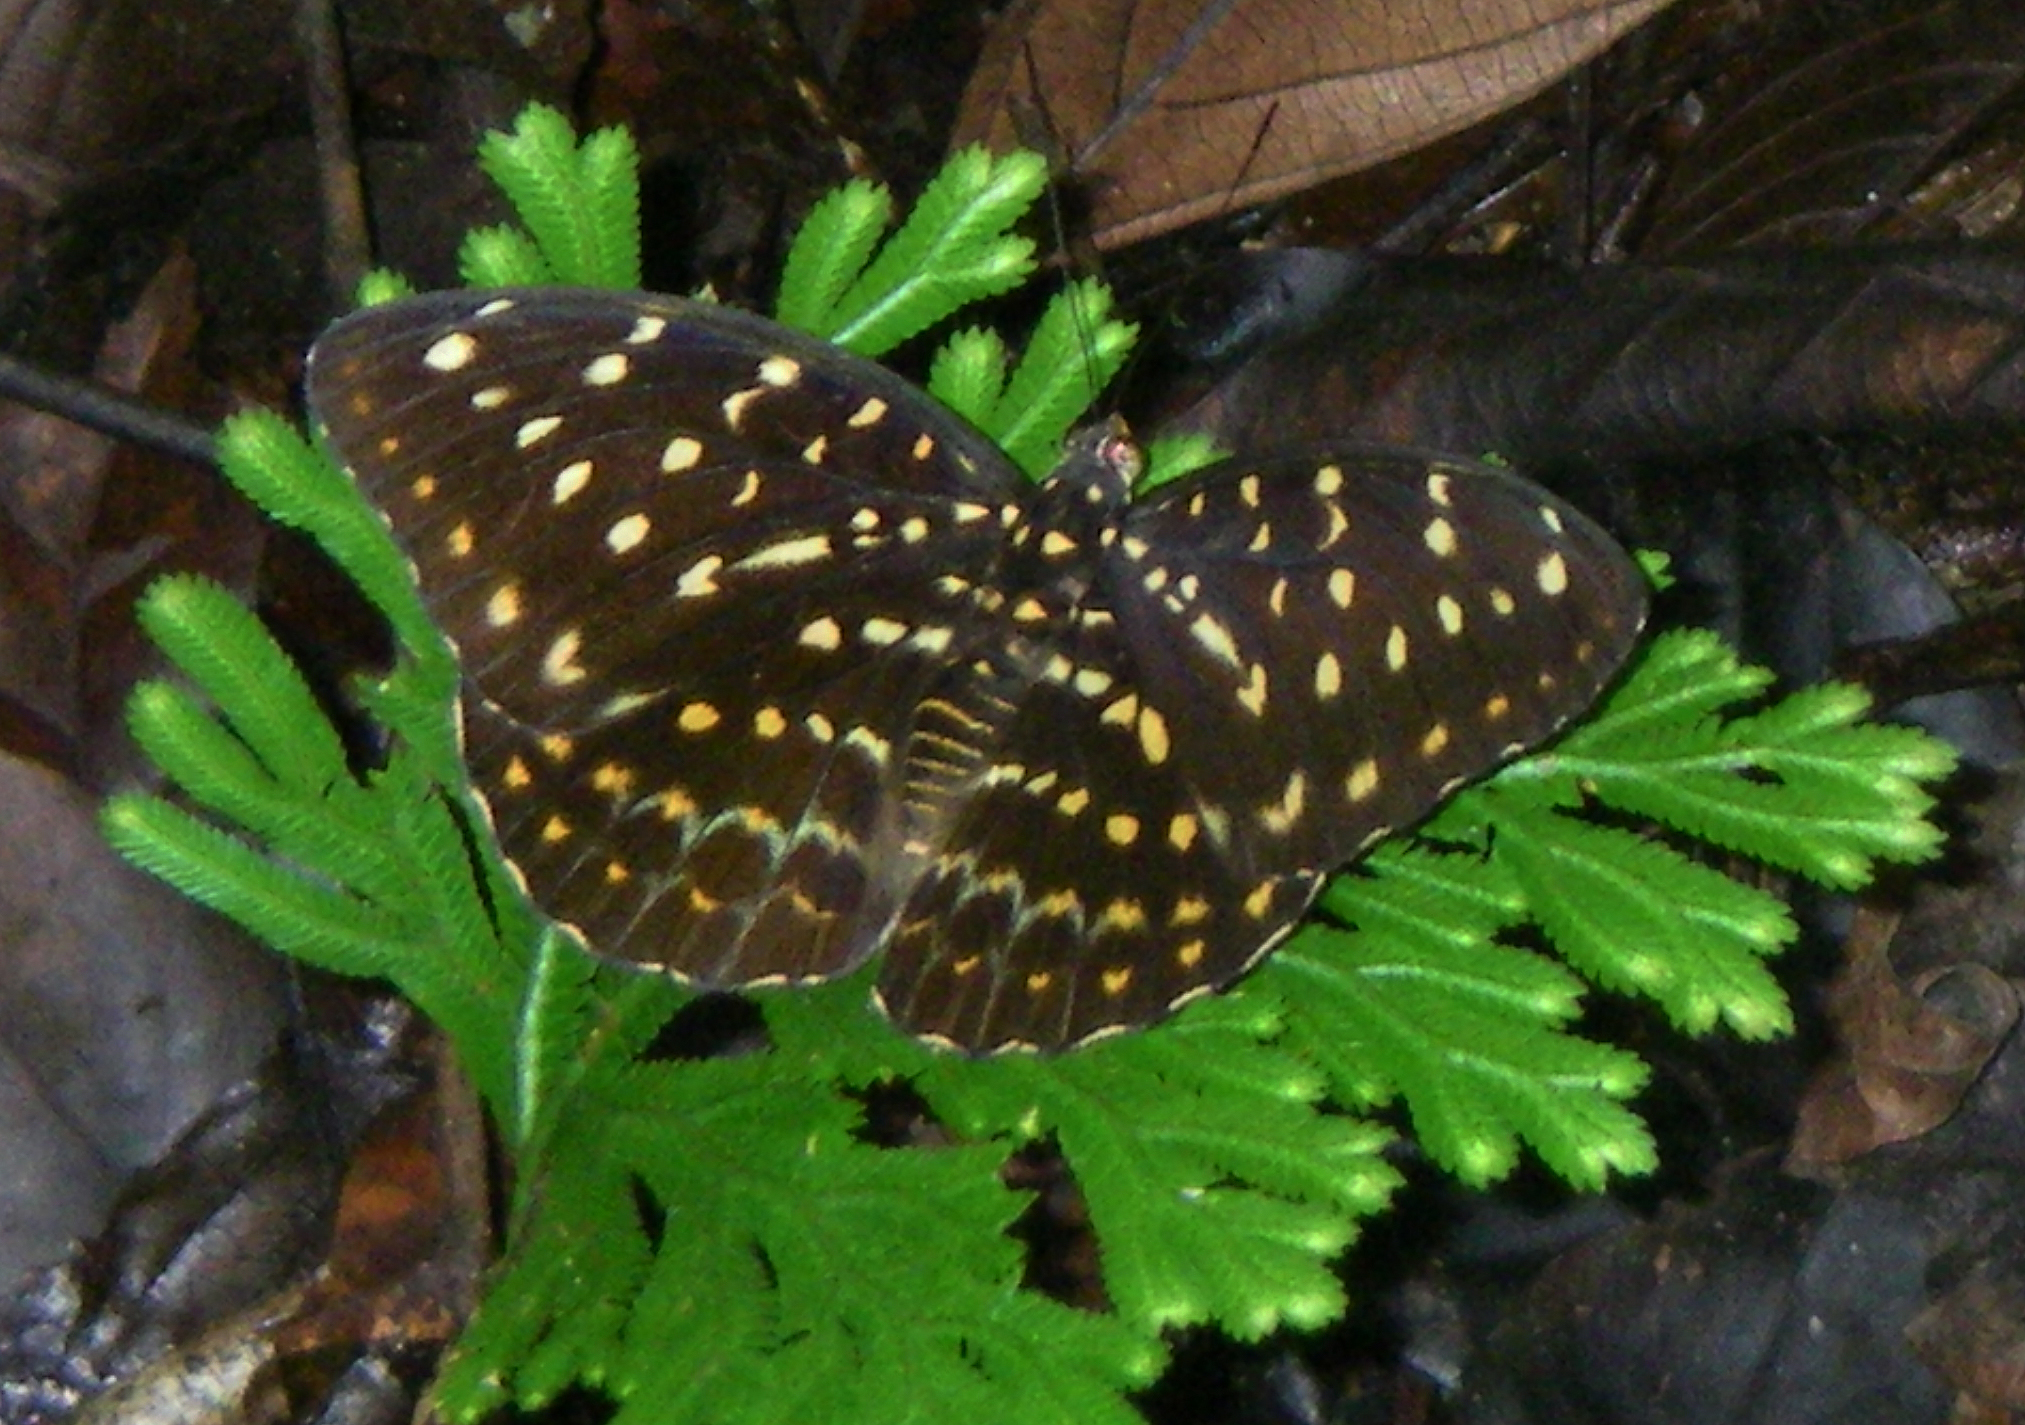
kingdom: Animalia
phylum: Arthropoda
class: Insecta
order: Lepidoptera
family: Nymphalidae
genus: Lexias
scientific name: Lexias dirtea
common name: Black-tipped archduke
